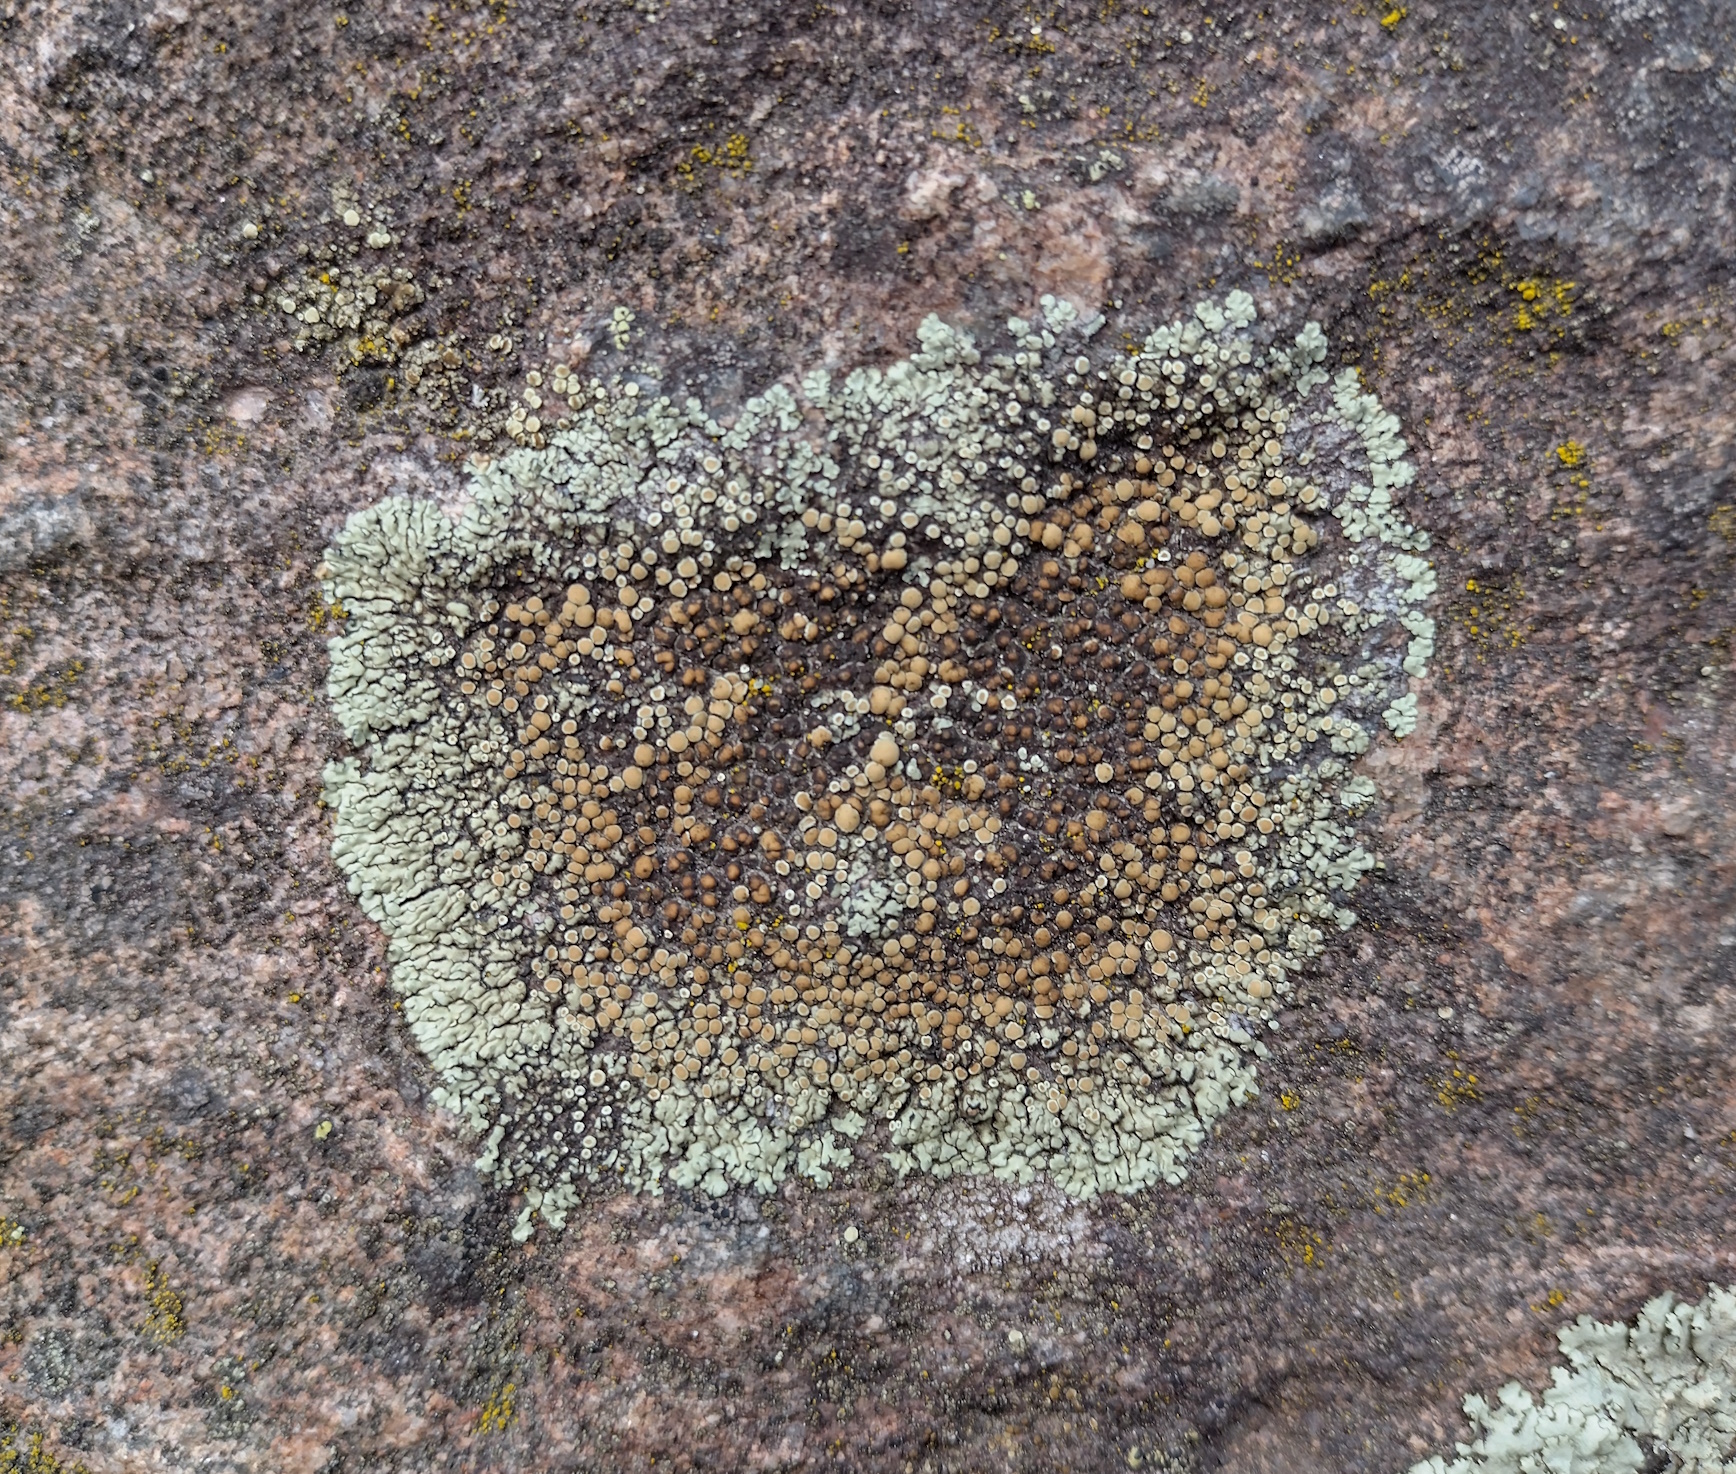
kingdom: Fungi
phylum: Ascomycota
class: Lecanoromycetes
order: Lecanorales
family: Lecanoraceae
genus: Protoparmeliopsis
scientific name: Protoparmeliopsis muralis
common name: Stonewall rim lichen
